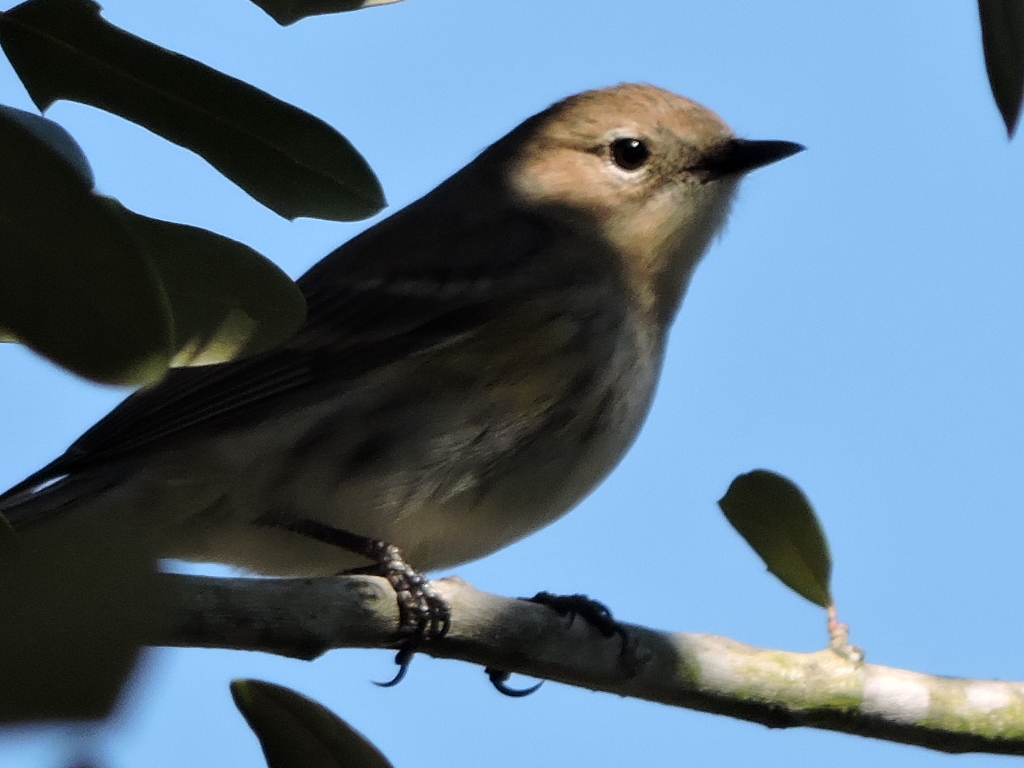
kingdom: Animalia
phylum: Chordata
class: Aves
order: Passeriformes
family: Parulidae
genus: Setophaga
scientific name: Setophaga coronata
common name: Myrtle warbler
